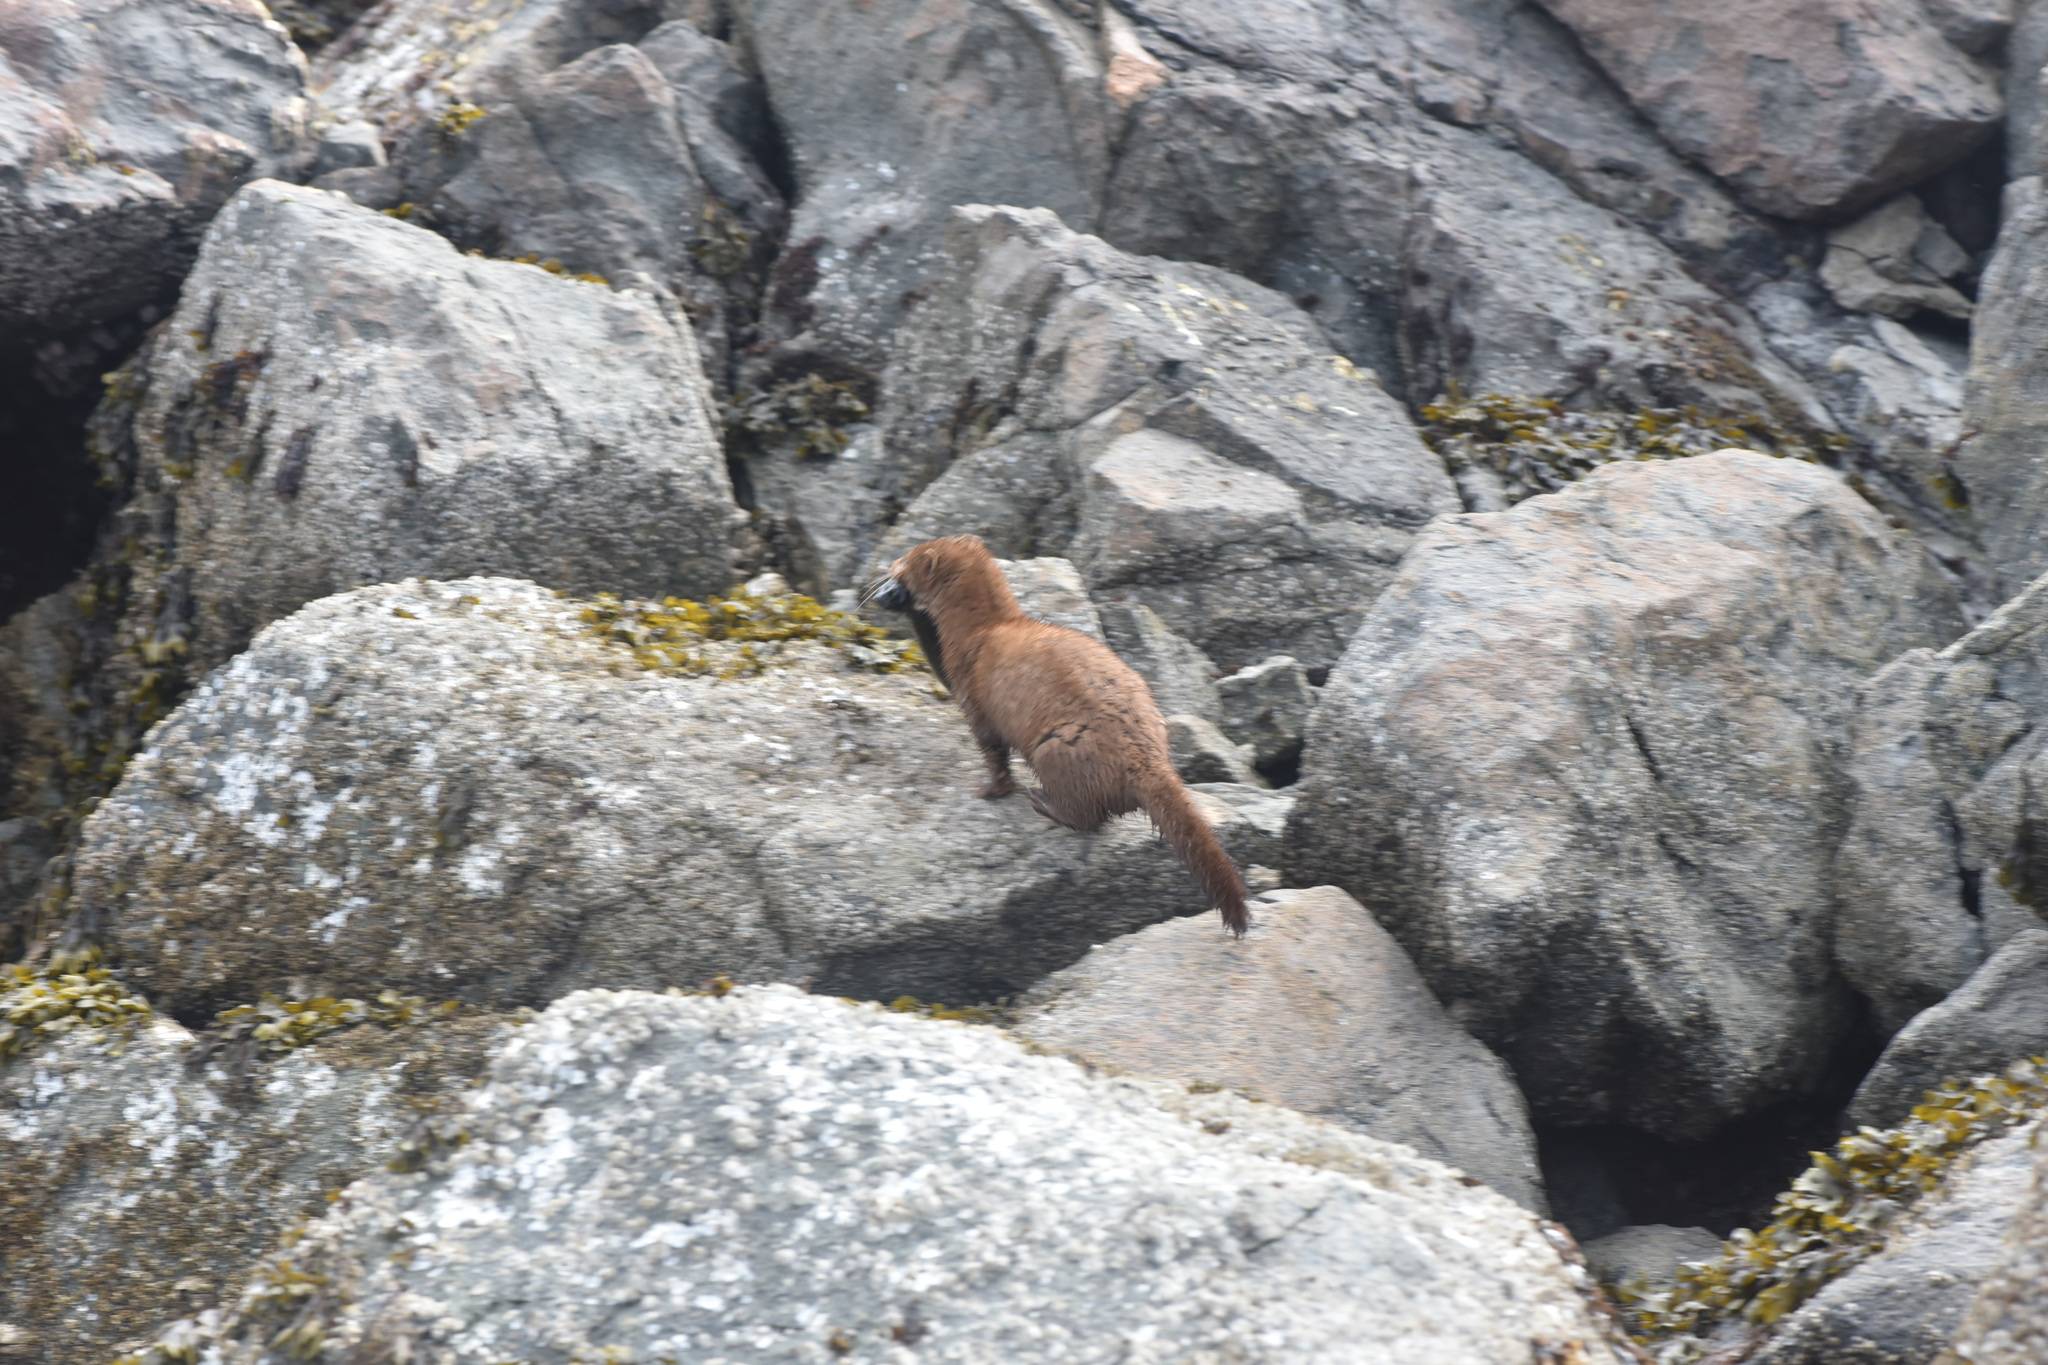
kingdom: Animalia
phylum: Chordata
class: Mammalia
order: Carnivora
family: Mustelidae
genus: Mustela
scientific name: Mustela
